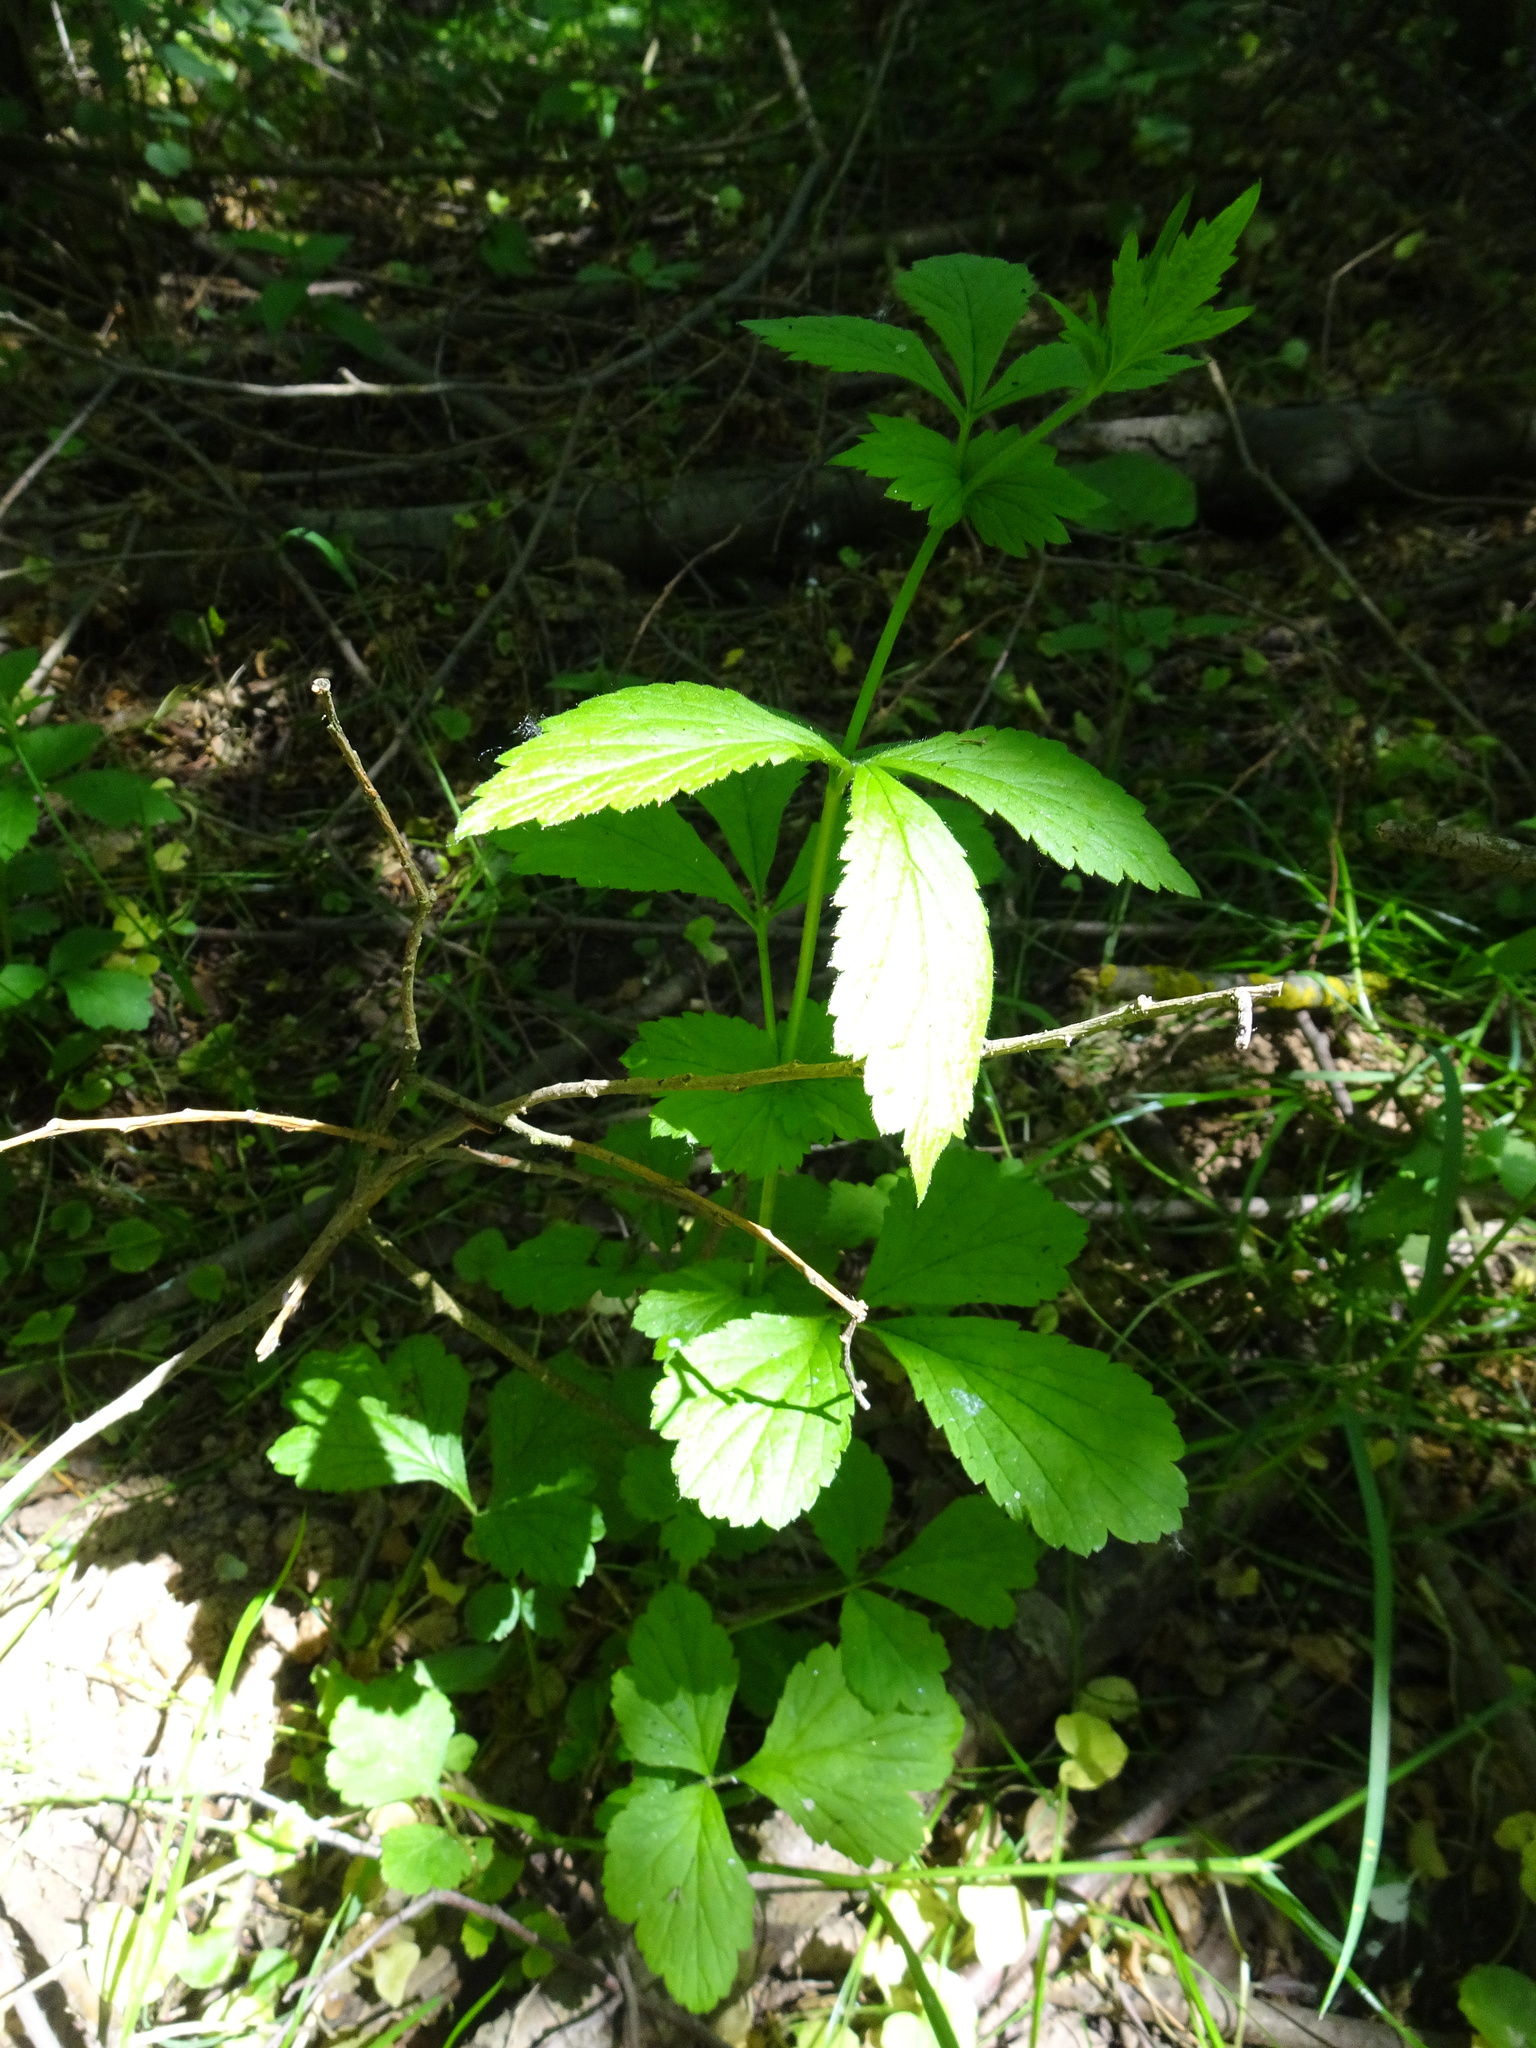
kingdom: Plantae
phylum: Tracheophyta
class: Magnoliopsida
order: Rosales
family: Rosaceae
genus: Geum
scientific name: Geum urbanum
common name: Wood avens
